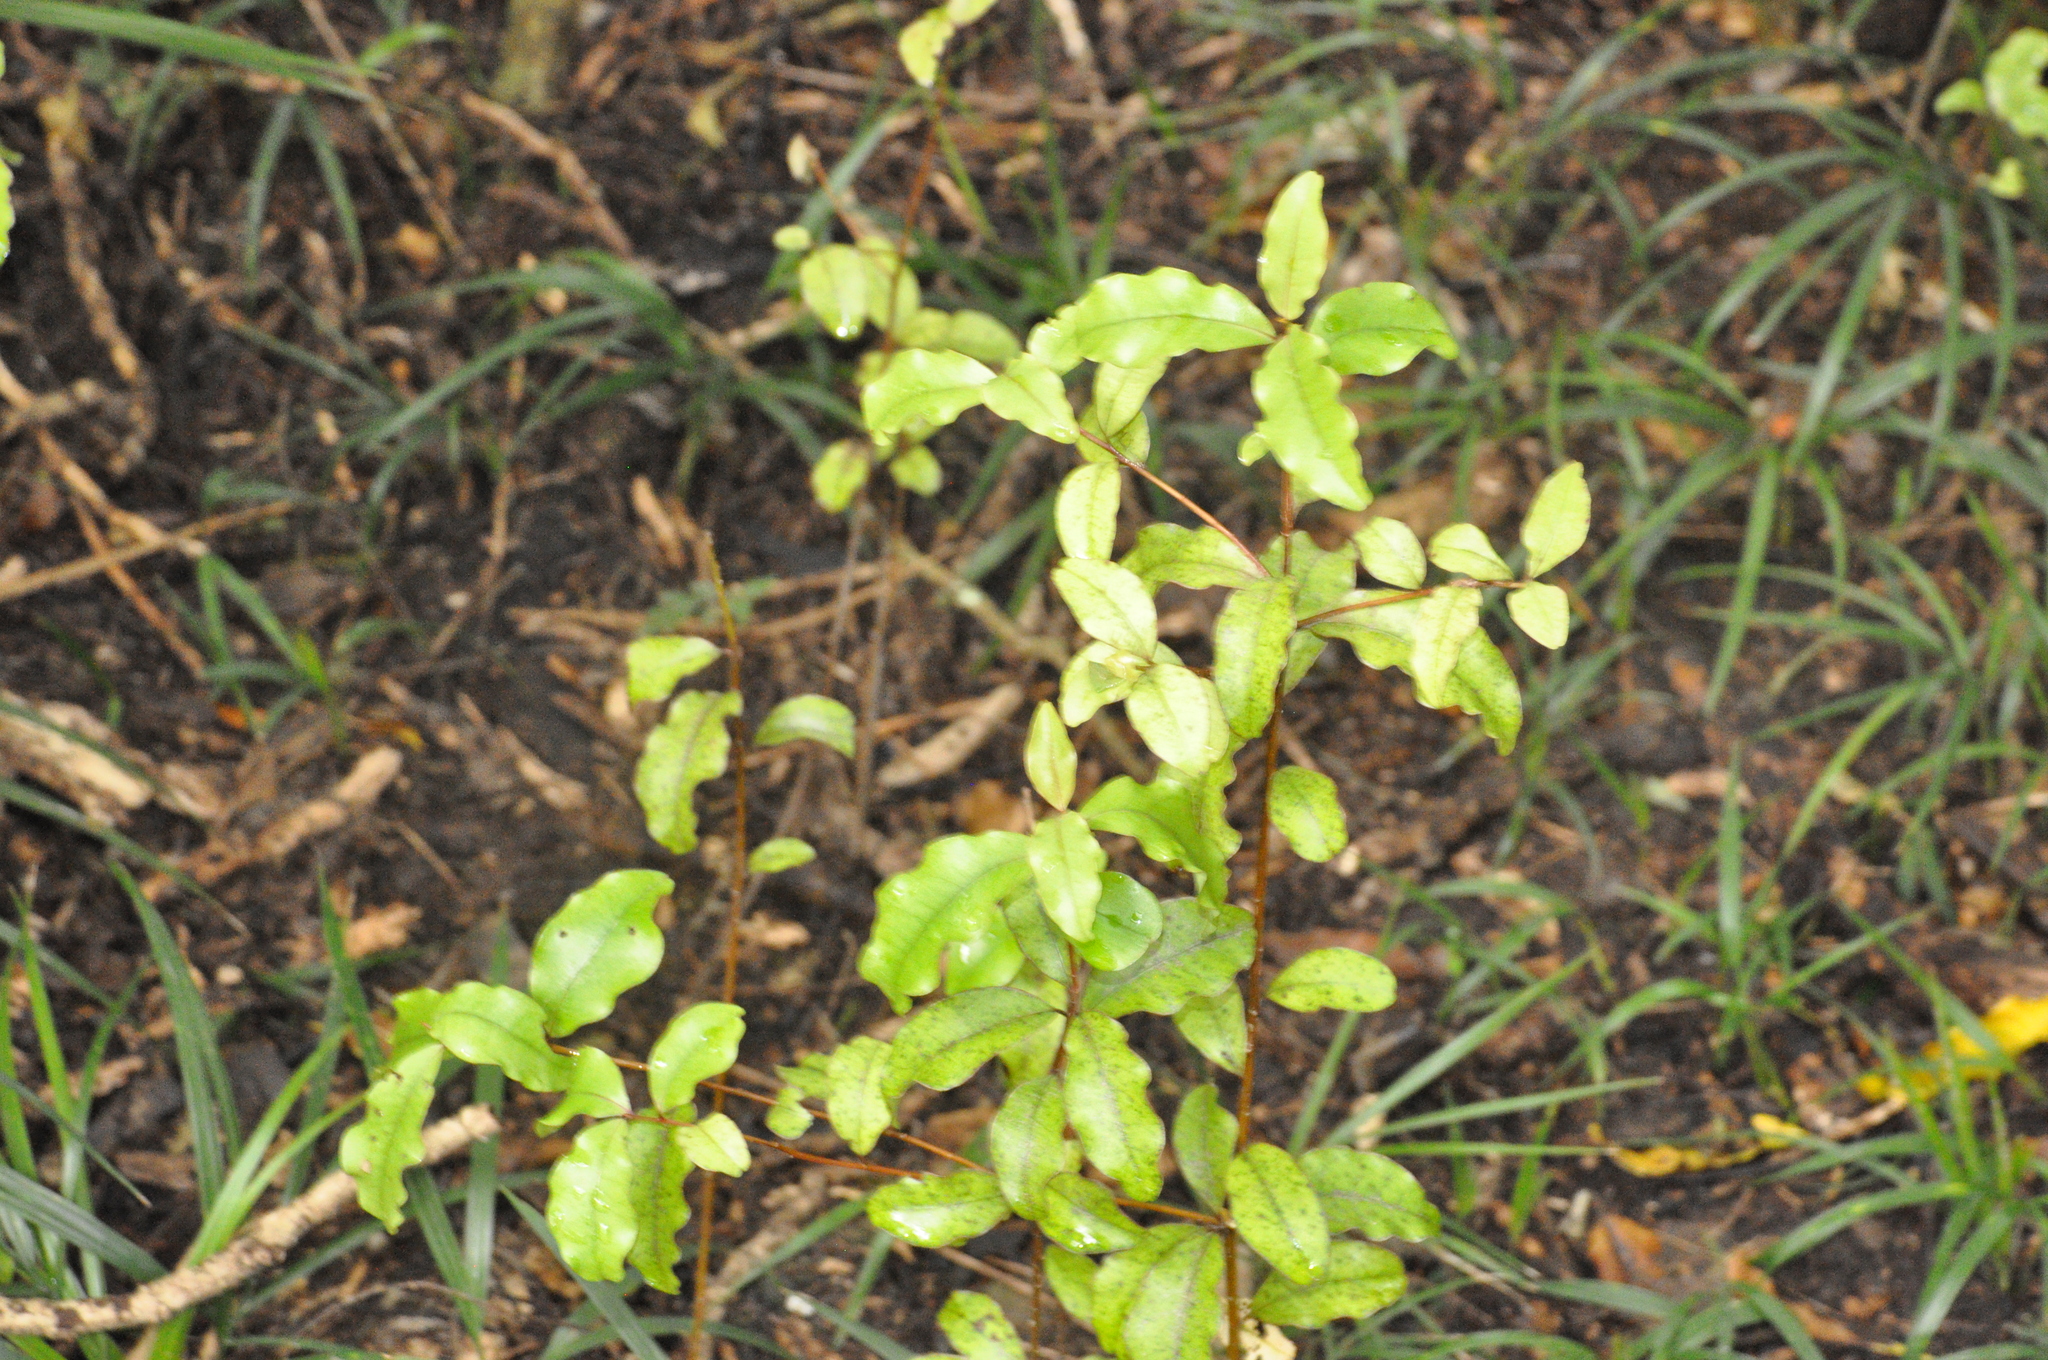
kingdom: Plantae
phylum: Tracheophyta
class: Magnoliopsida
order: Ericales
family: Primulaceae
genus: Myrsine
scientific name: Myrsine australis
